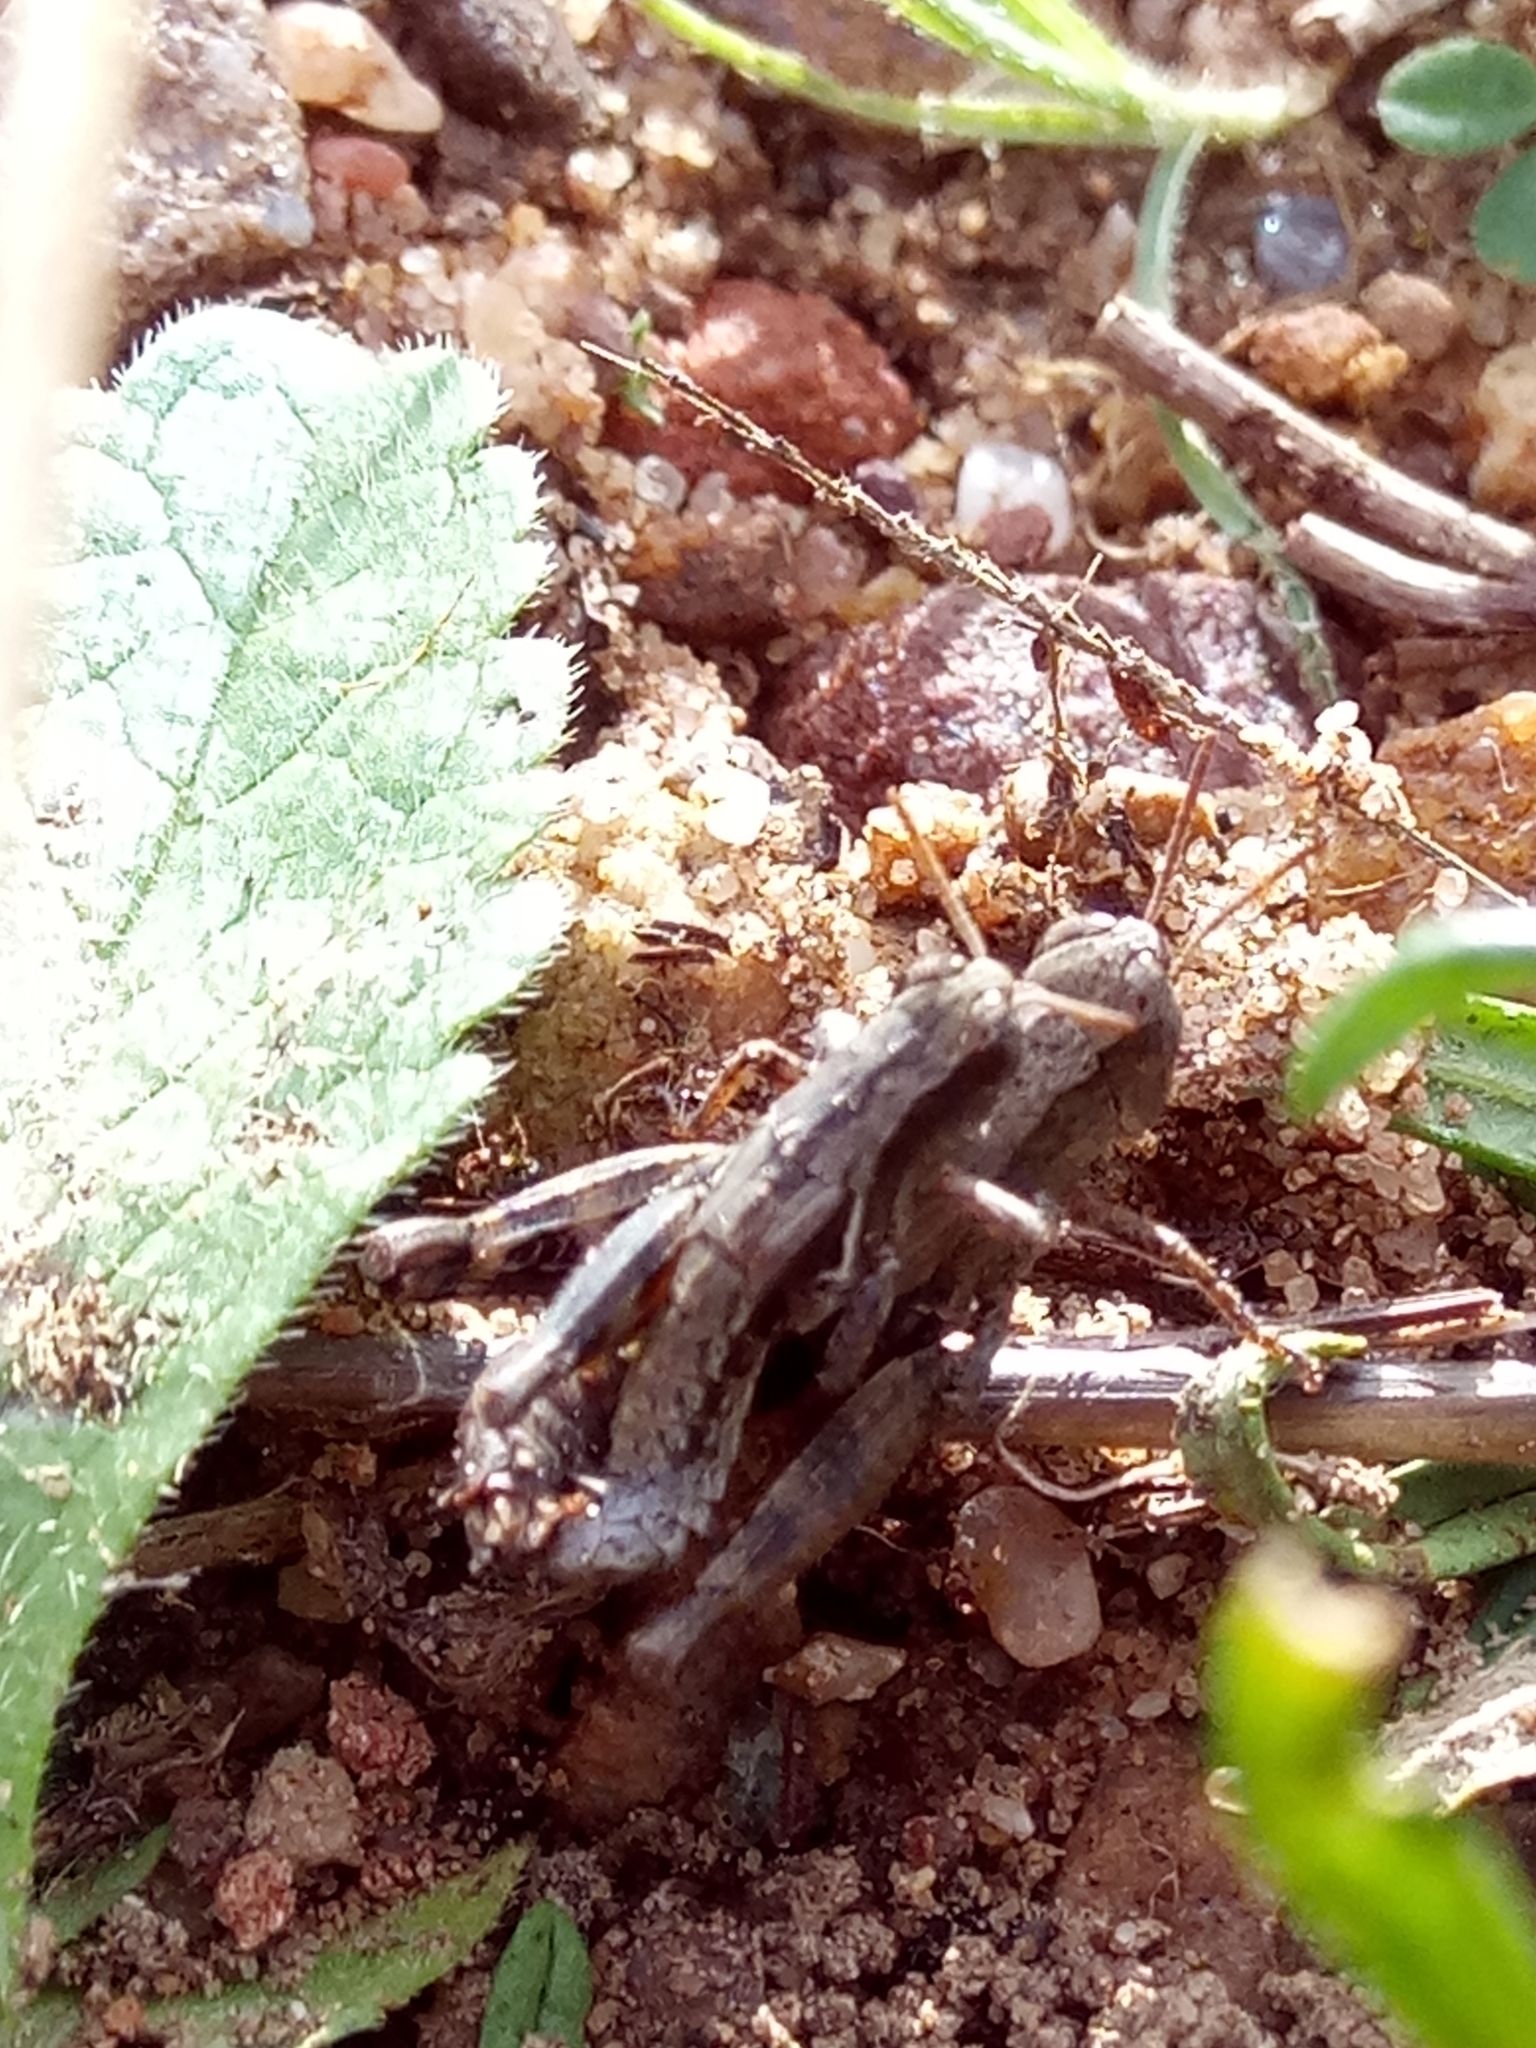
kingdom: Animalia
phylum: Arthropoda
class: Insecta
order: Orthoptera
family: Acrididae
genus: Pezotettix
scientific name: Pezotettix giornae
